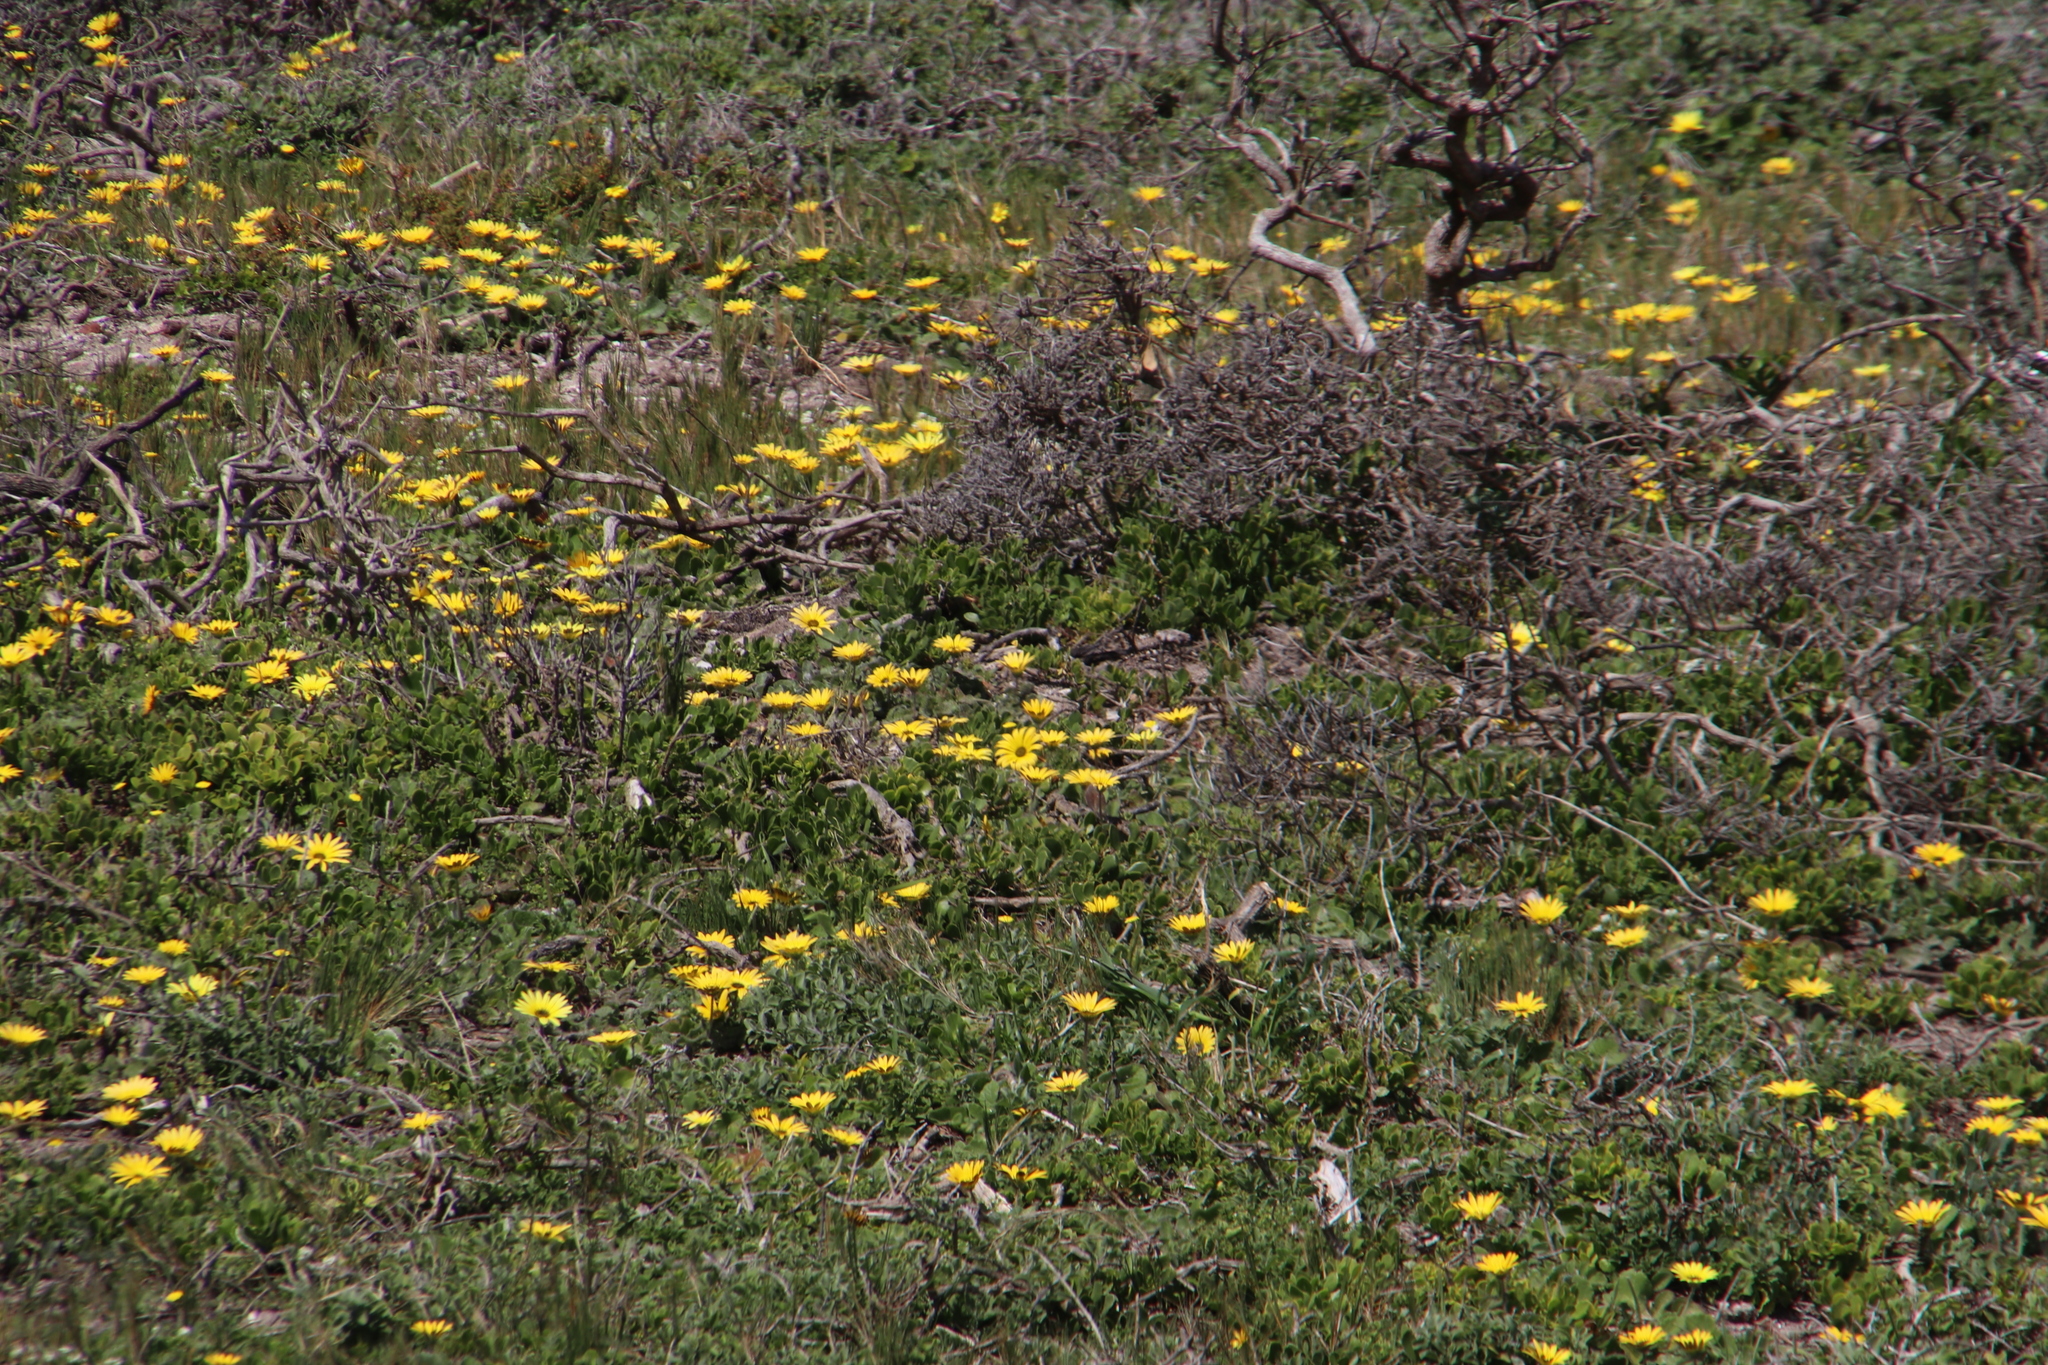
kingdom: Plantae
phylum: Tracheophyta
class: Magnoliopsida
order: Asterales
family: Asteraceae
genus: Arctotheca
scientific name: Arctotheca calendula
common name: Capeweed
